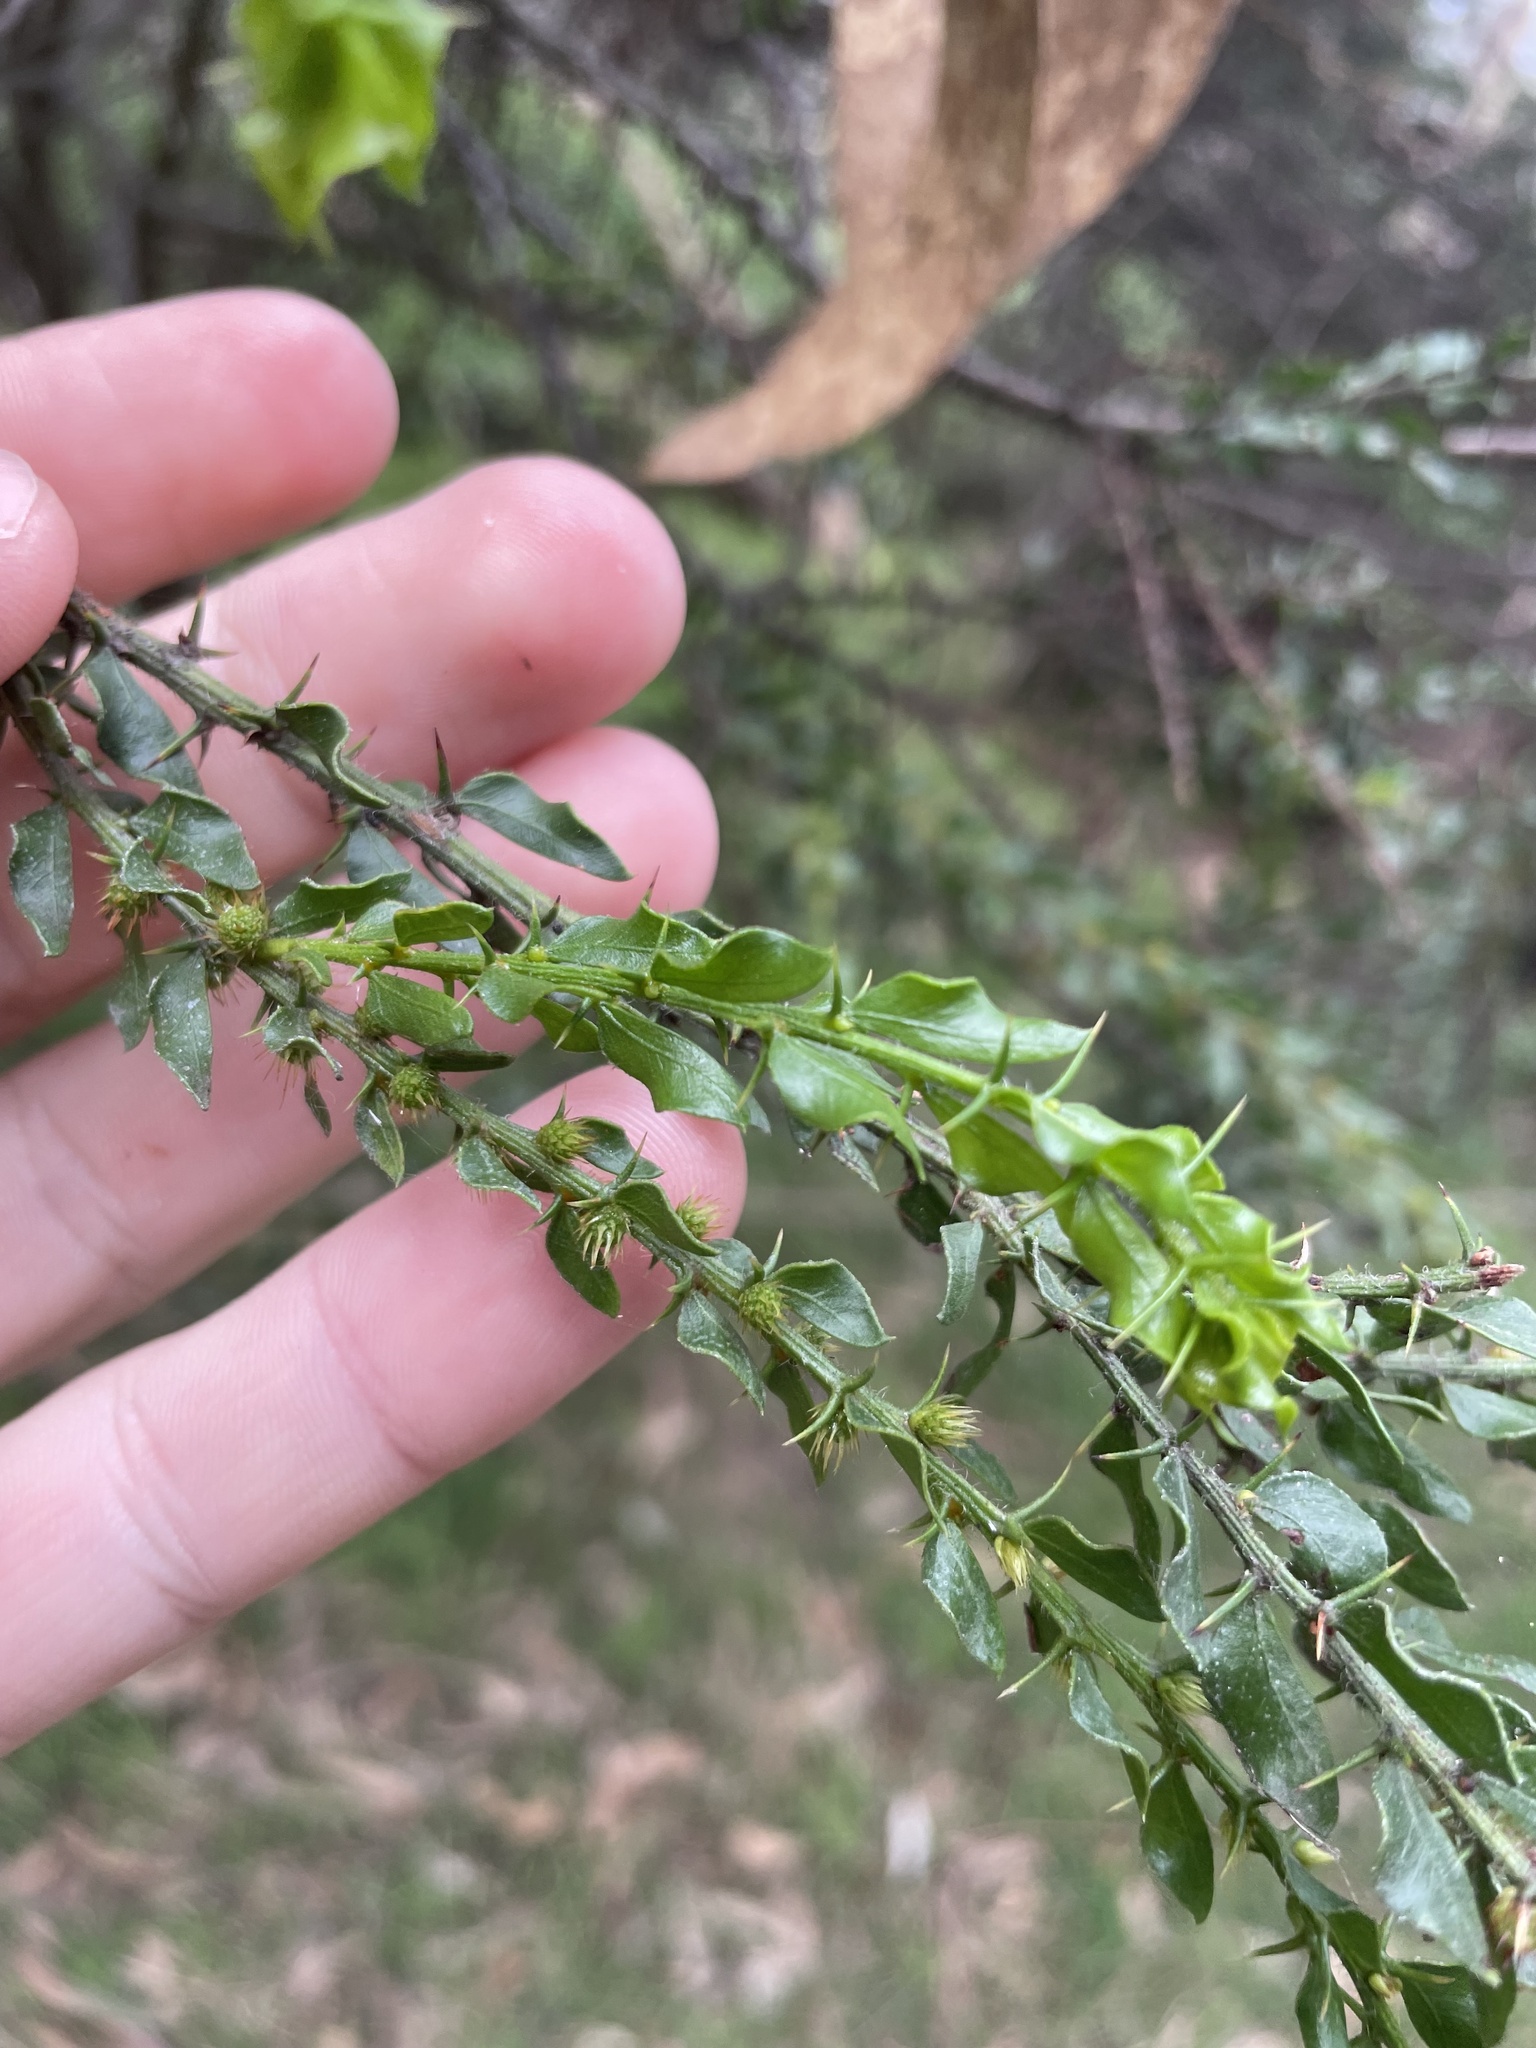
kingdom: Plantae
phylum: Tracheophyta
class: Magnoliopsida
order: Fabales
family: Fabaceae
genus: Acacia
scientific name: Acacia paradoxa
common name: Paradox acacia
